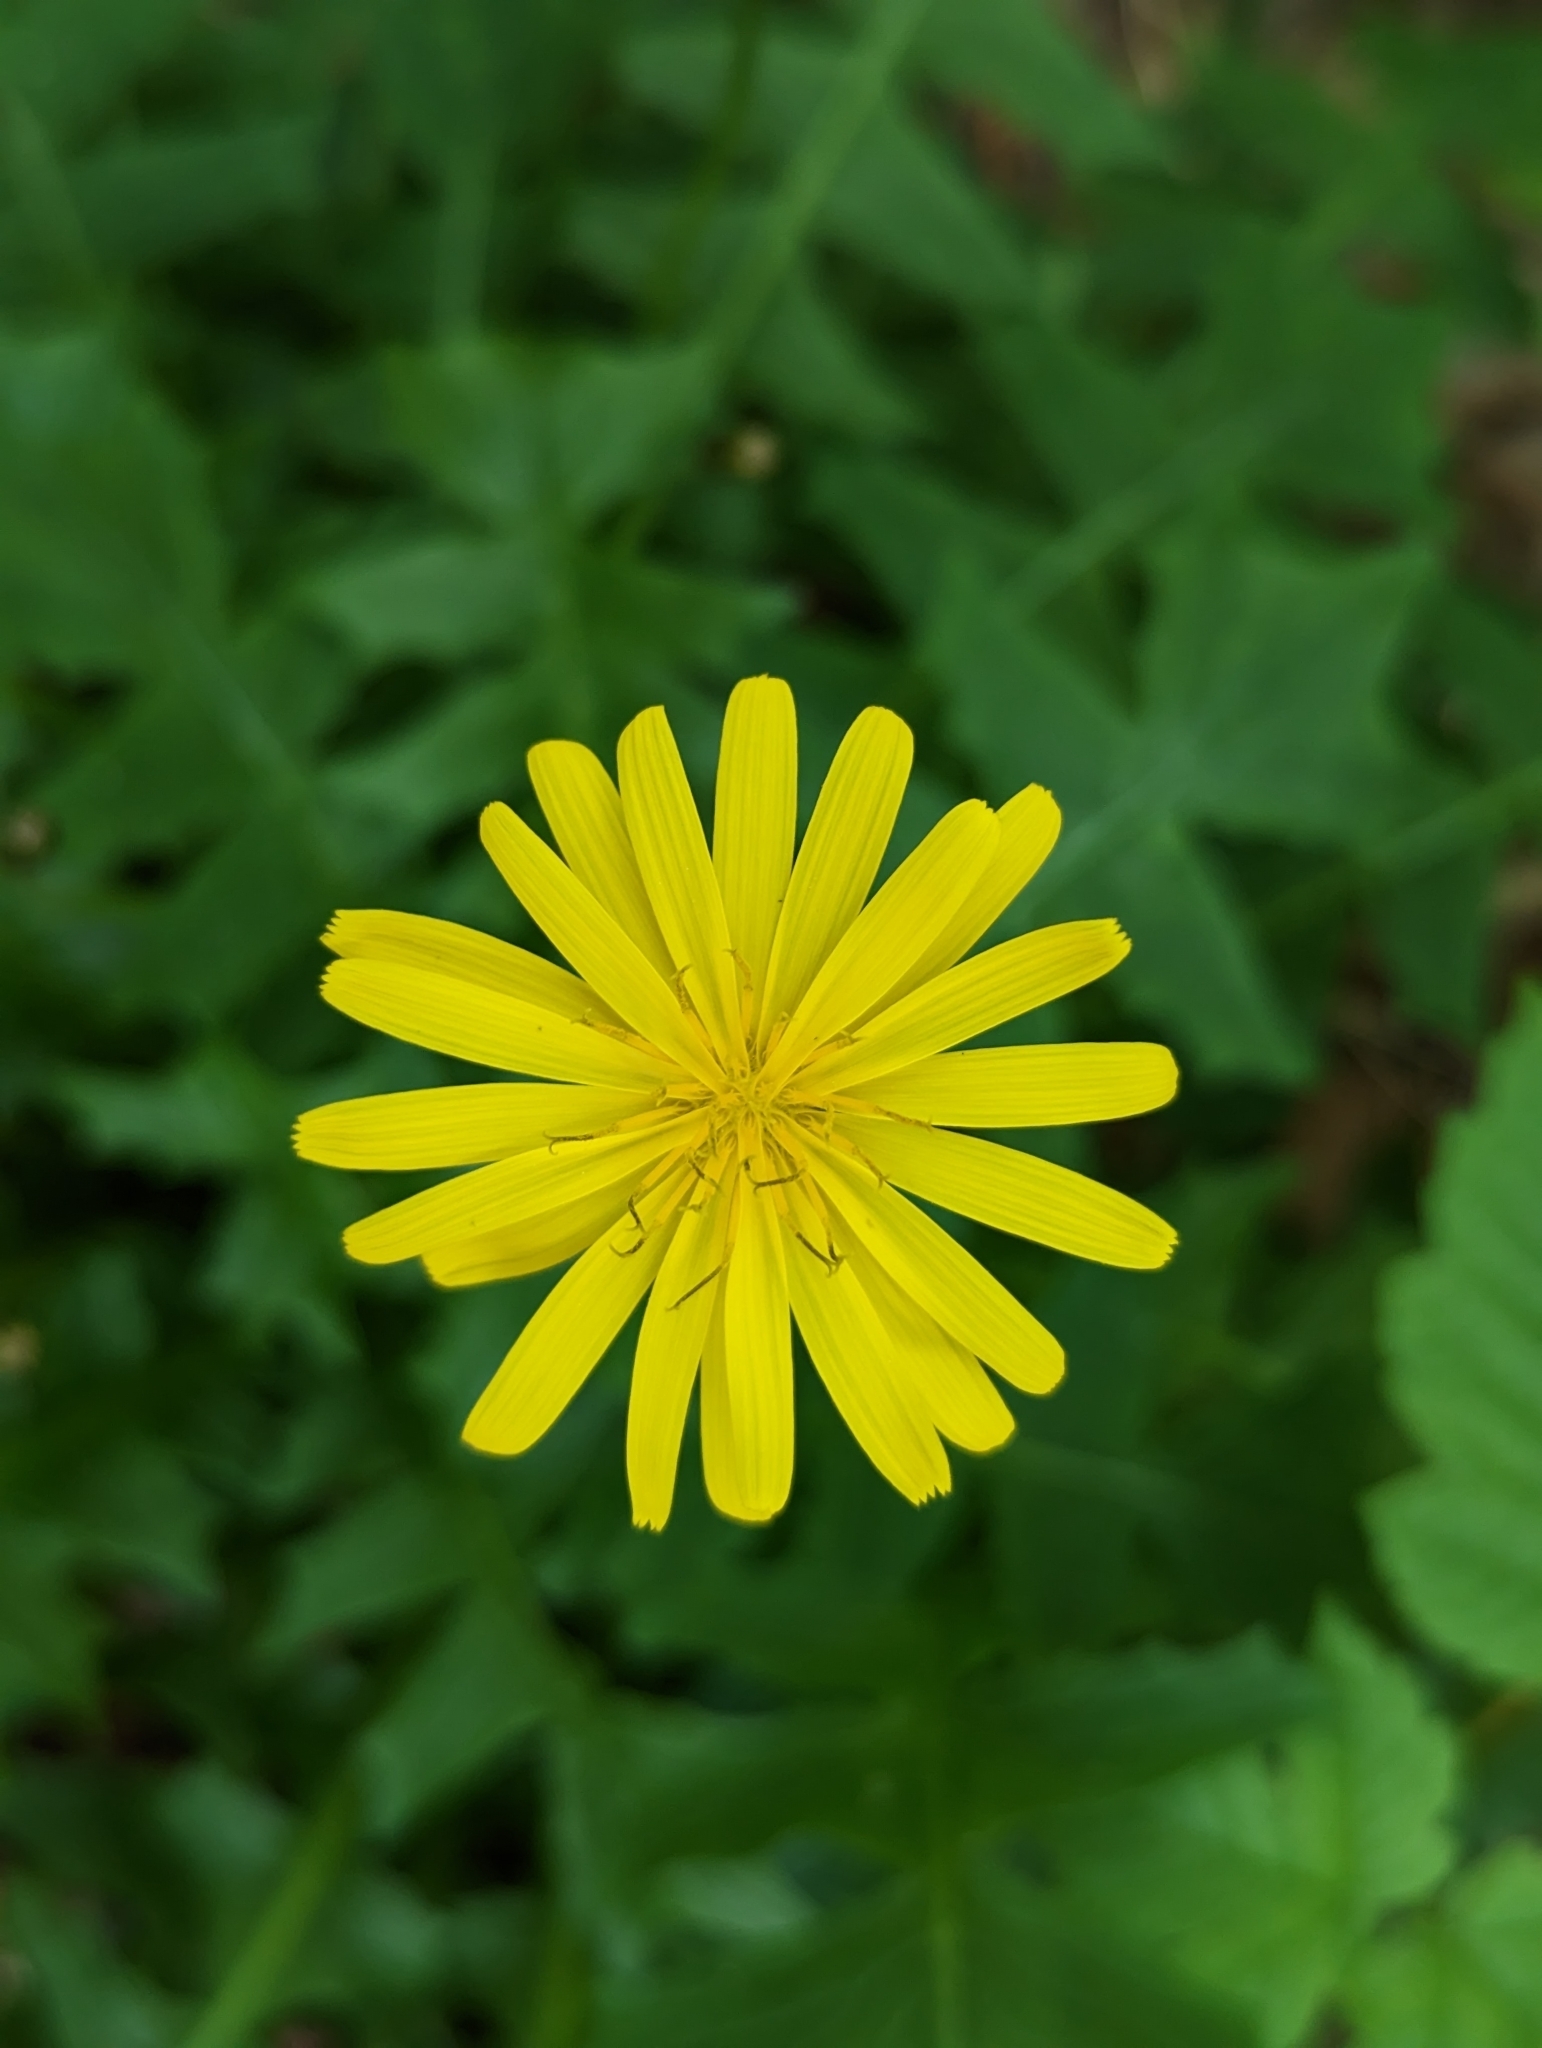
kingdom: Plantae
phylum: Tracheophyta
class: Magnoliopsida
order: Asterales
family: Asteraceae
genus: Aposeris
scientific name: Aposeris foetida
